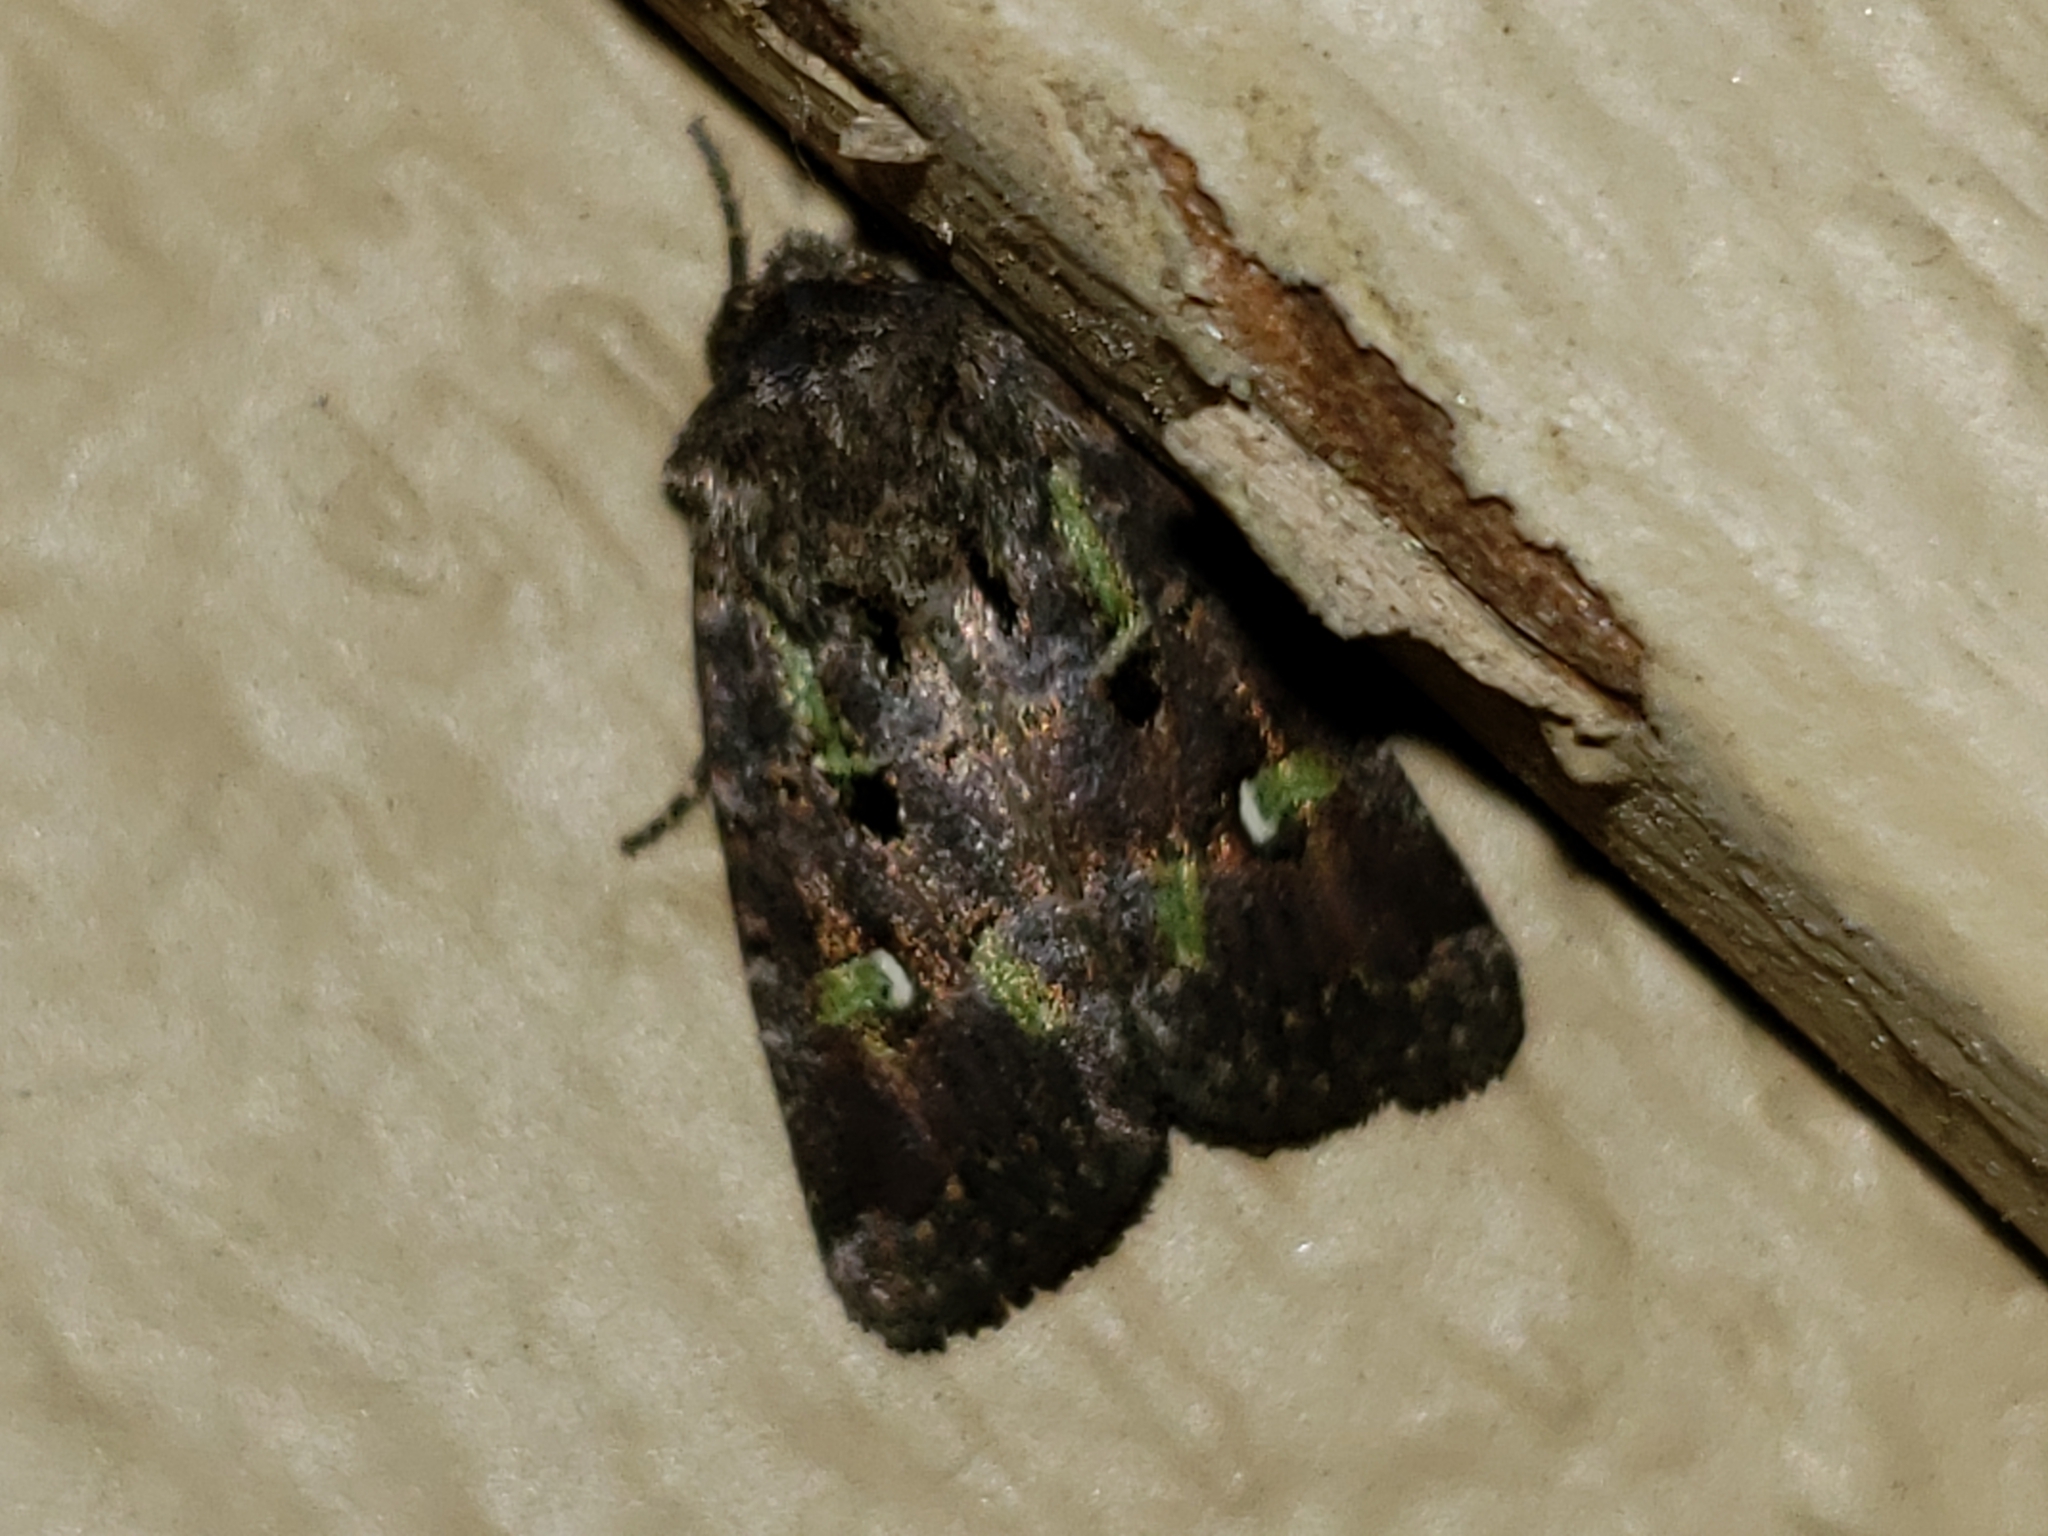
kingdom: Animalia
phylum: Arthropoda
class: Insecta
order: Lepidoptera
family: Noctuidae
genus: Lacinipolia
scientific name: Lacinipolia renigera
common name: Kidney-spotted minor
